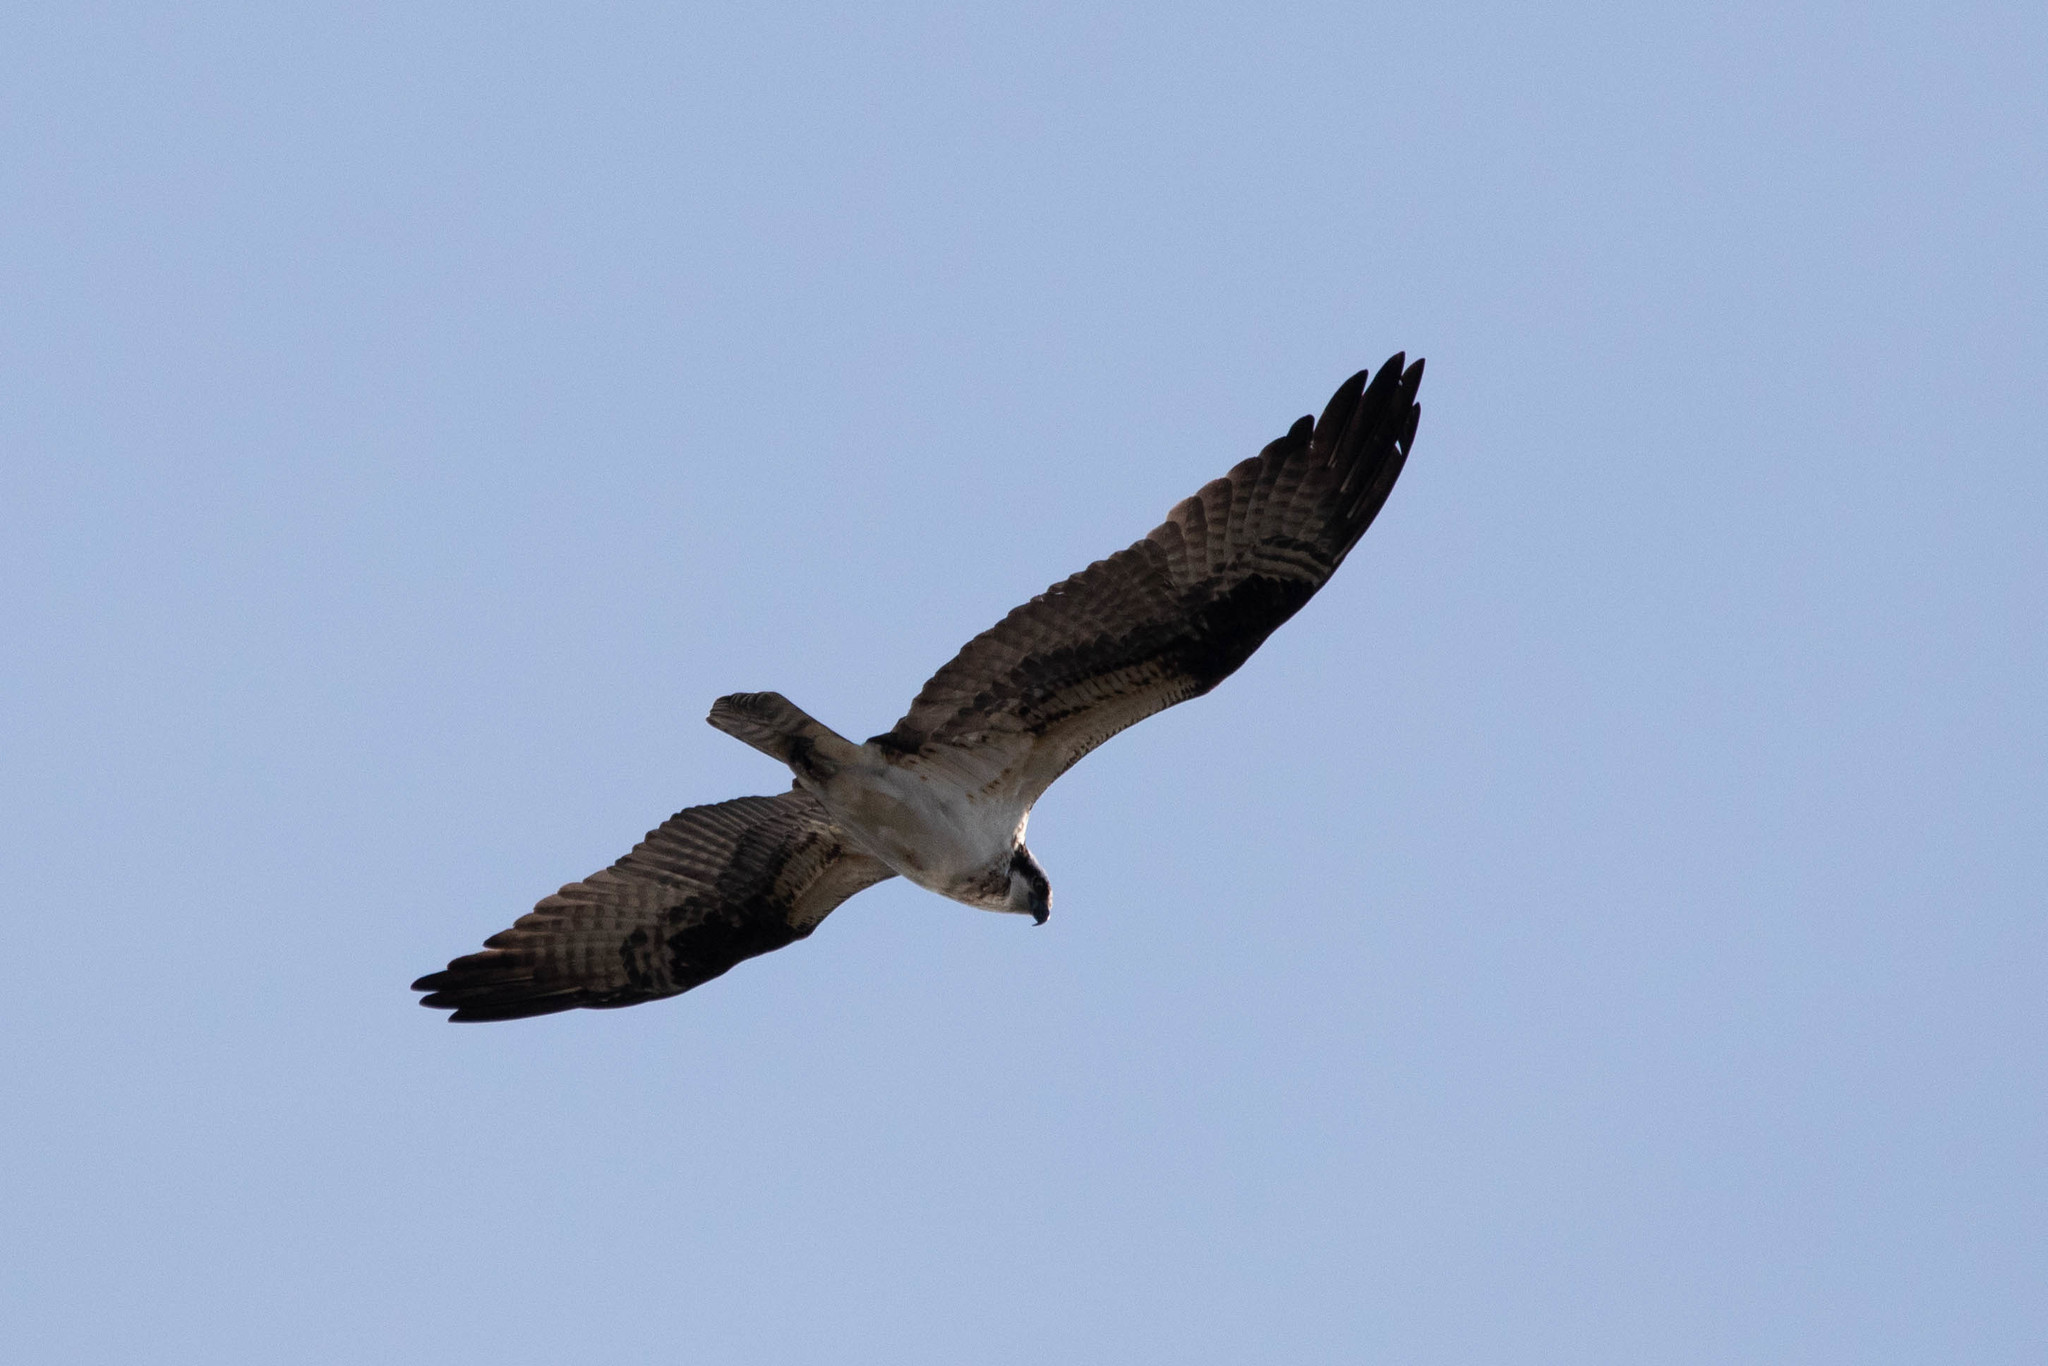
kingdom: Animalia
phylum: Chordata
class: Aves
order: Accipitriformes
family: Pandionidae
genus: Pandion
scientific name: Pandion haliaetus
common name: Osprey
